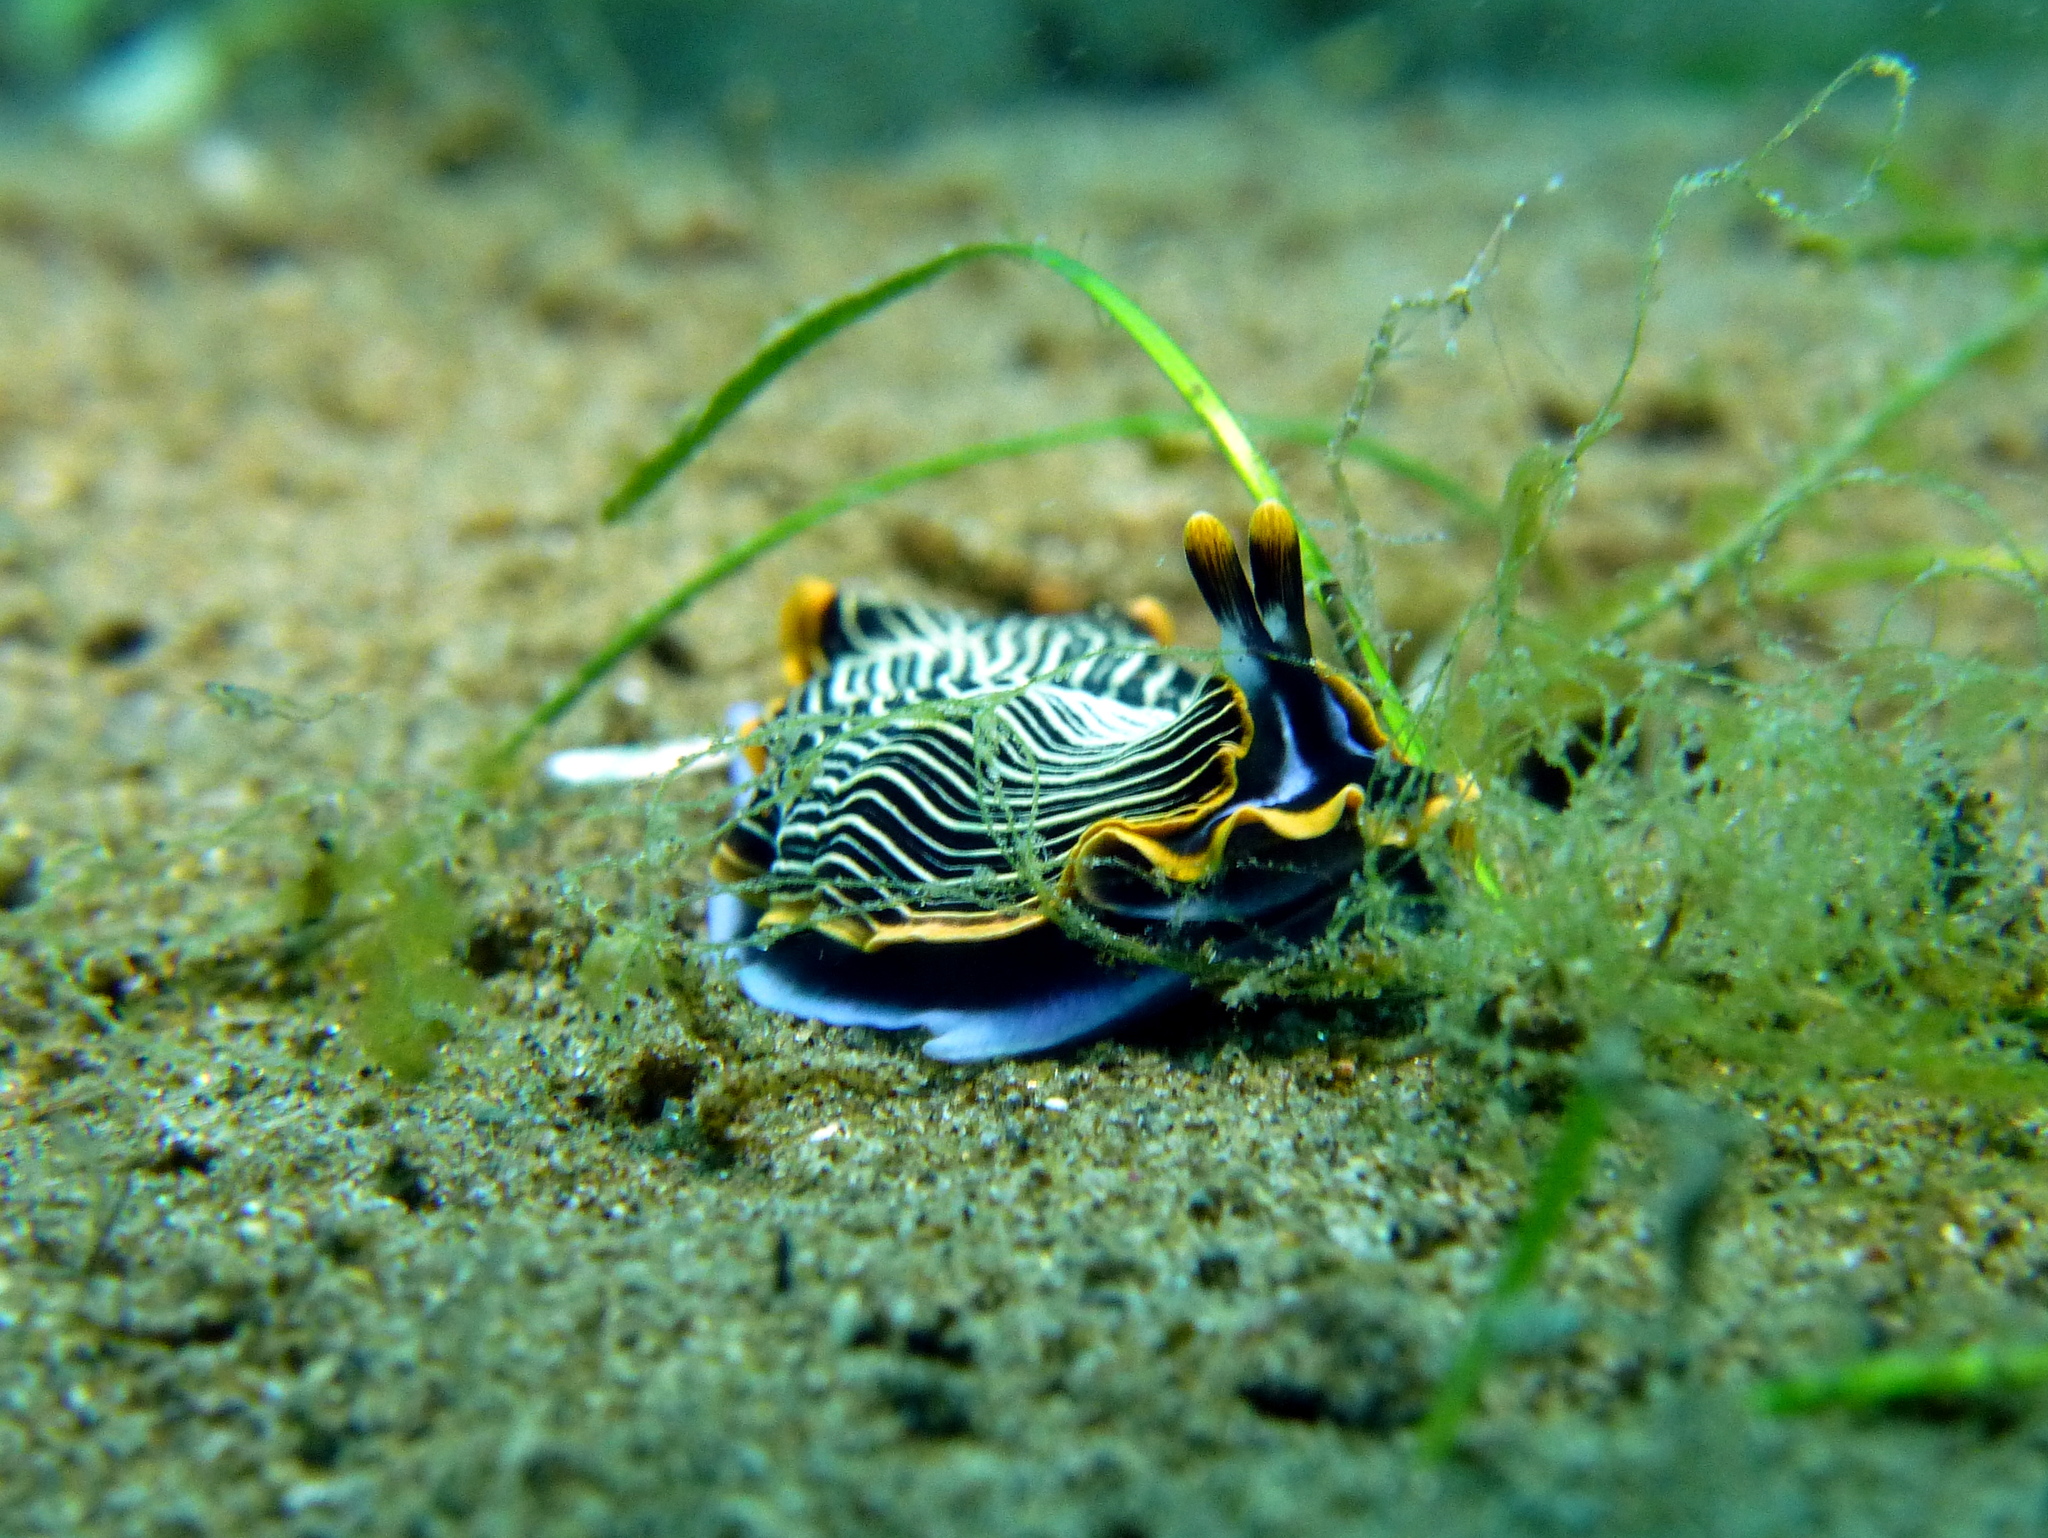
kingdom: Animalia
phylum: Mollusca
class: Gastropoda
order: Nudibranchia
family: Arminidae
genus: Armina
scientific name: Armina occulta
